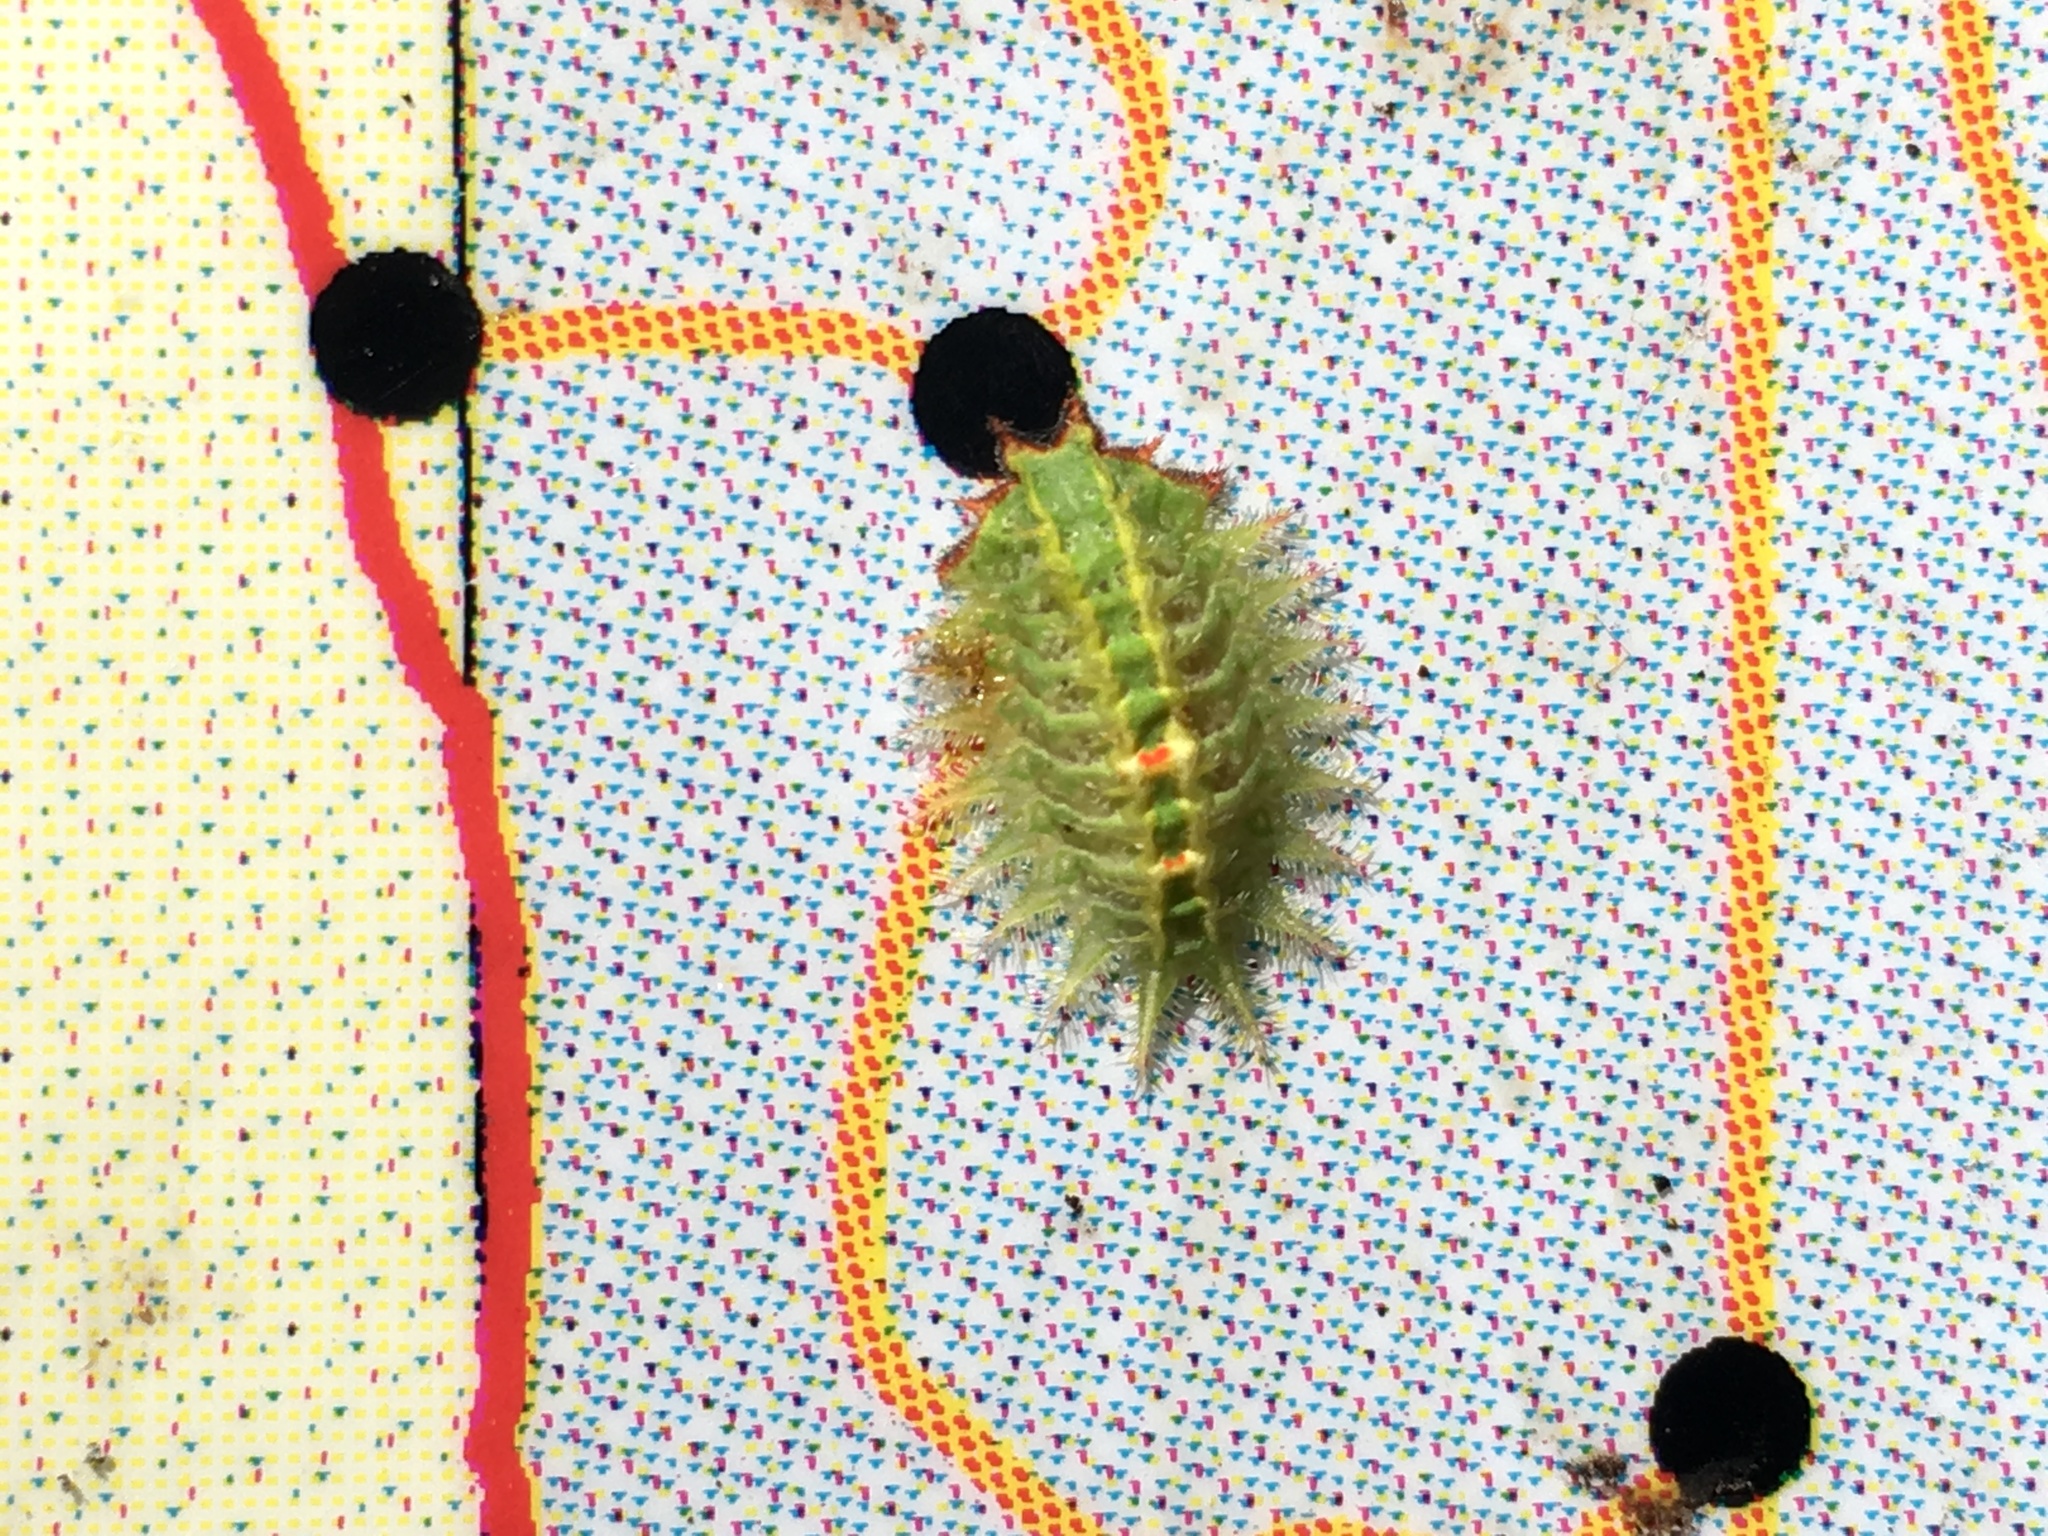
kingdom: Animalia
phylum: Arthropoda
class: Insecta
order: Lepidoptera
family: Limacodidae
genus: Isa
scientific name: Isa textula
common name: Crowned slug moth
